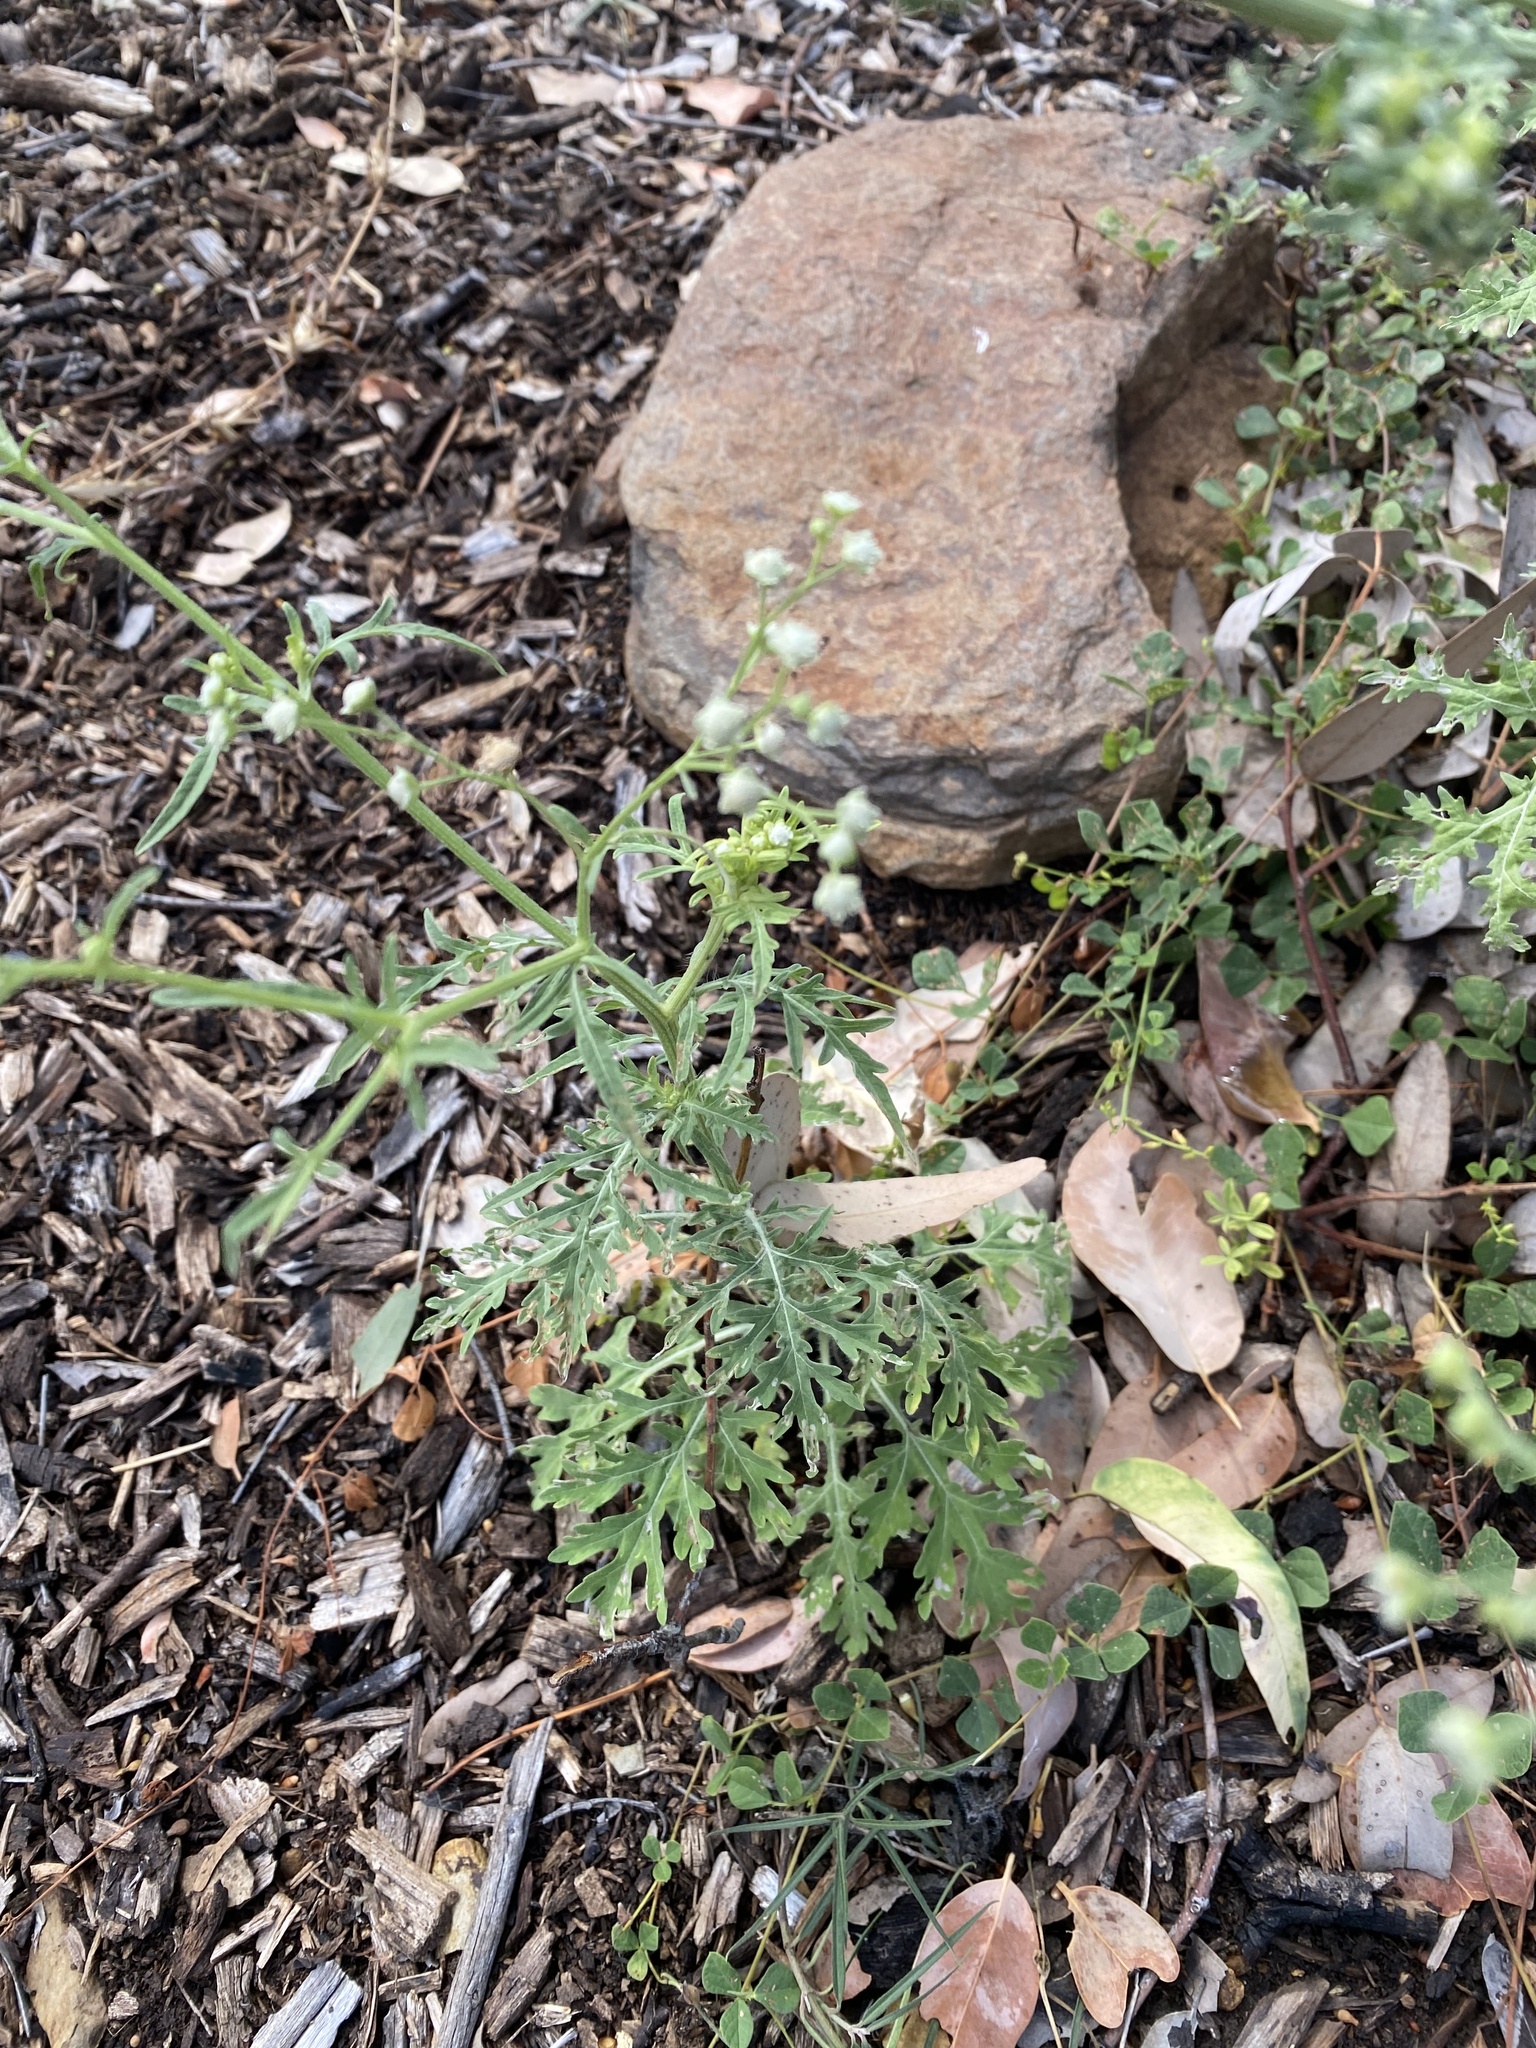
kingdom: Plantae
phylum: Tracheophyta
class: Magnoliopsida
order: Asterales
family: Asteraceae
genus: Parthenium
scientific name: Parthenium hysterophorus
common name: Santa maria feverfew
